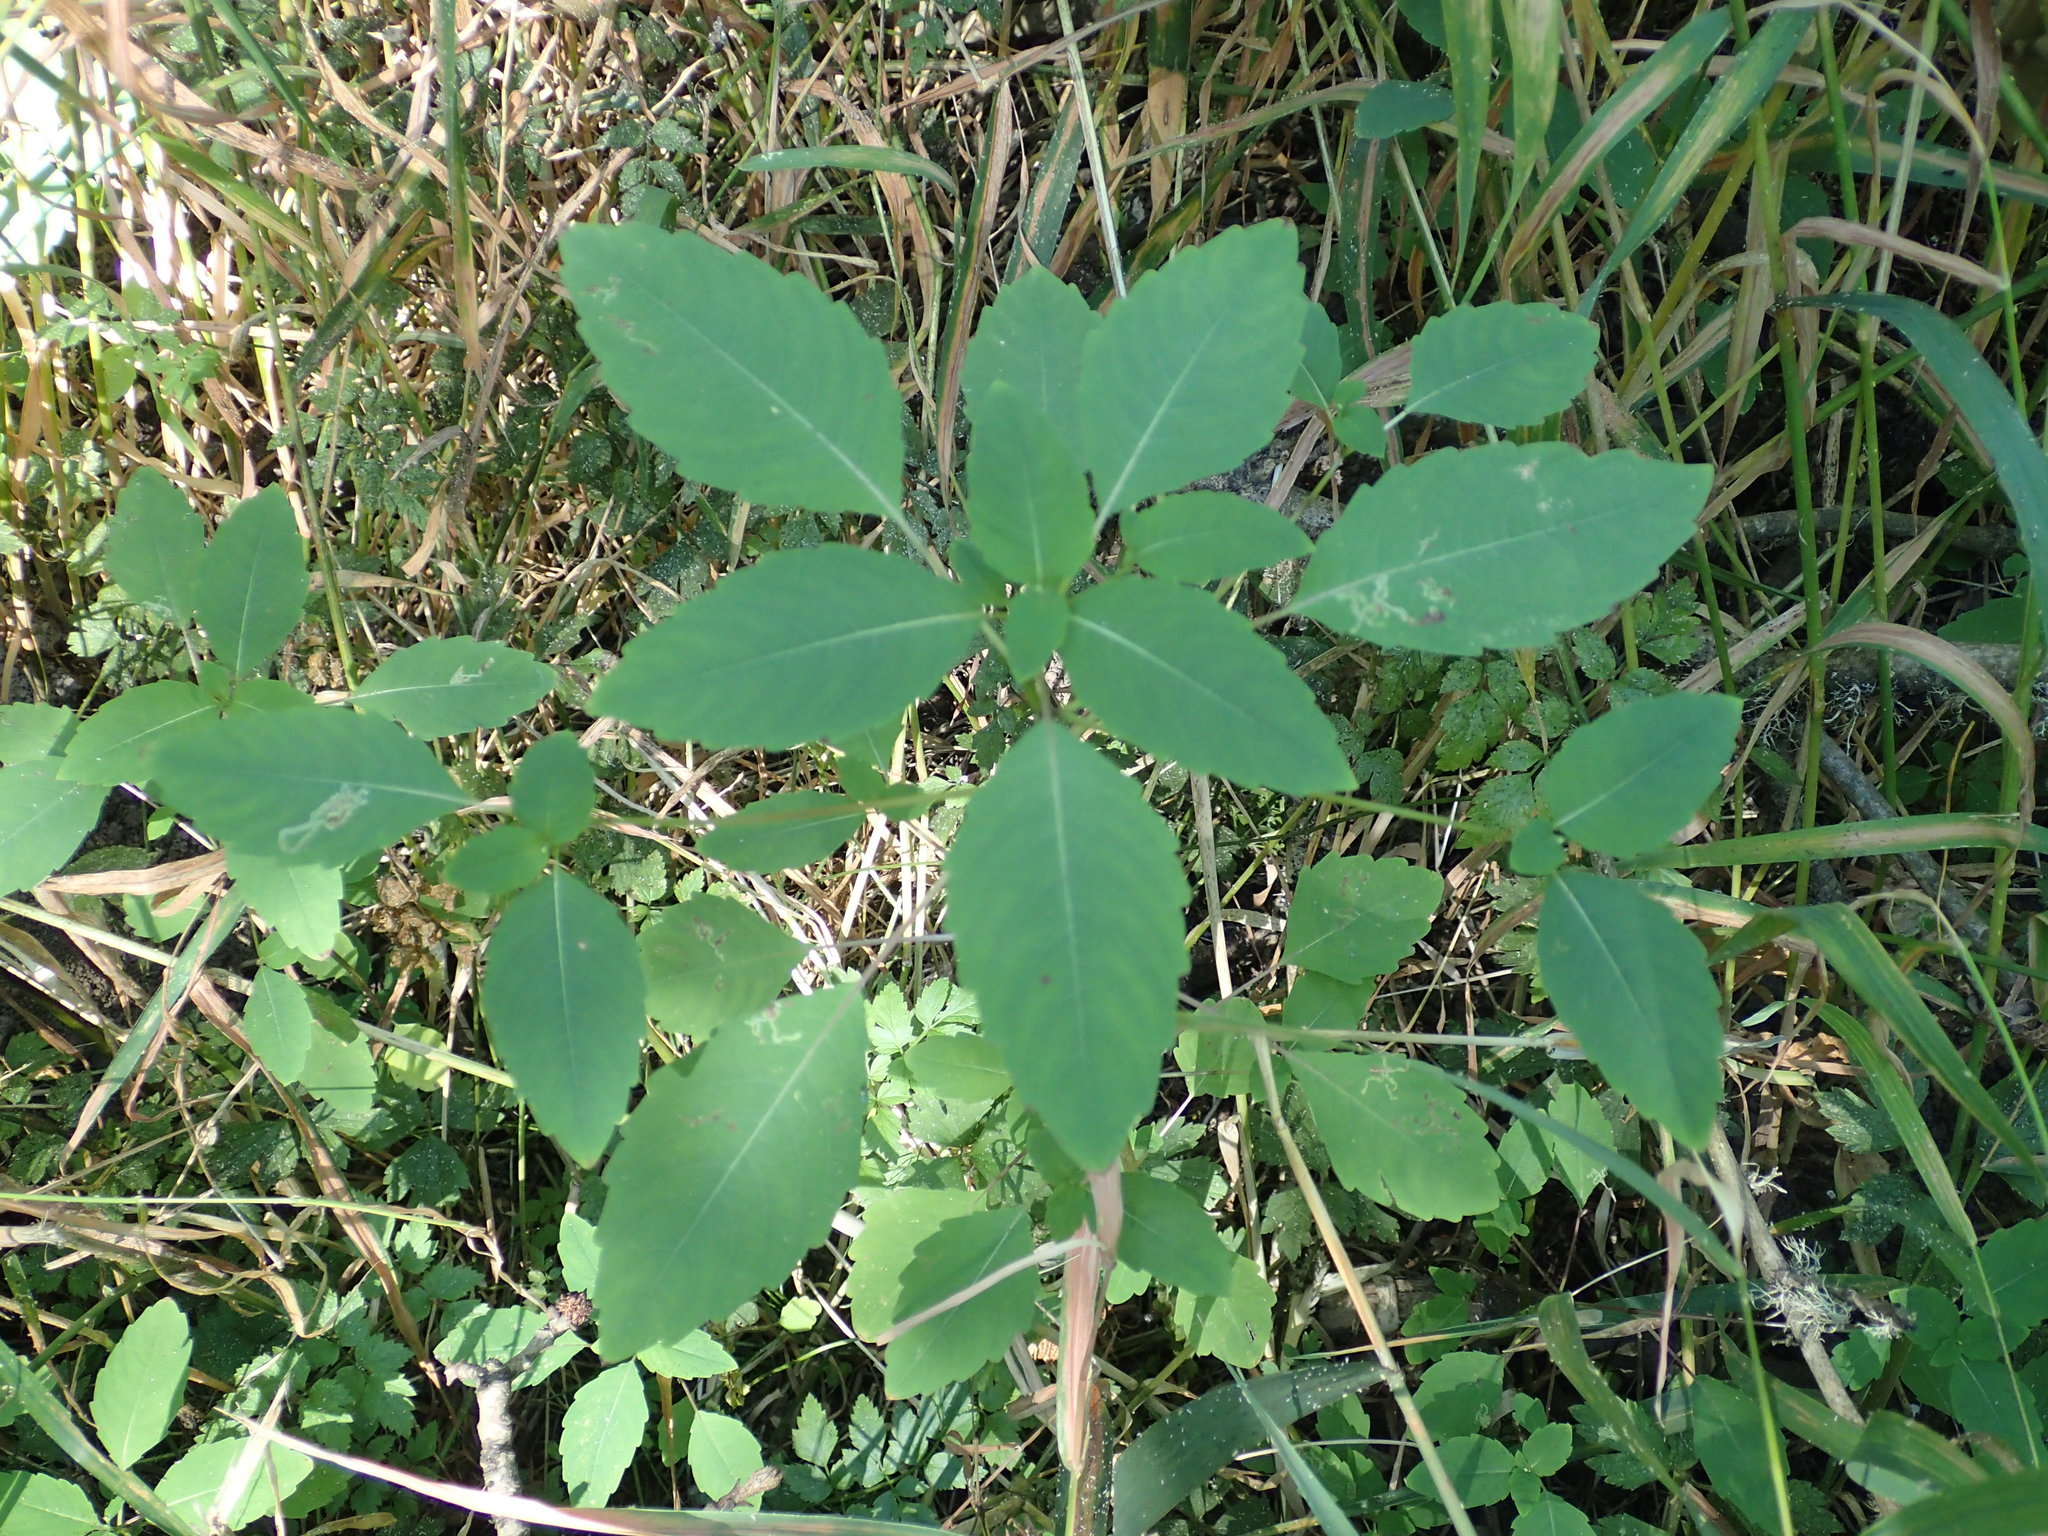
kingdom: Plantae
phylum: Tracheophyta
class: Magnoliopsida
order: Ericales
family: Balsaminaceae
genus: Impatiens
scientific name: Impatiens capensis
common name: Orange balsam
